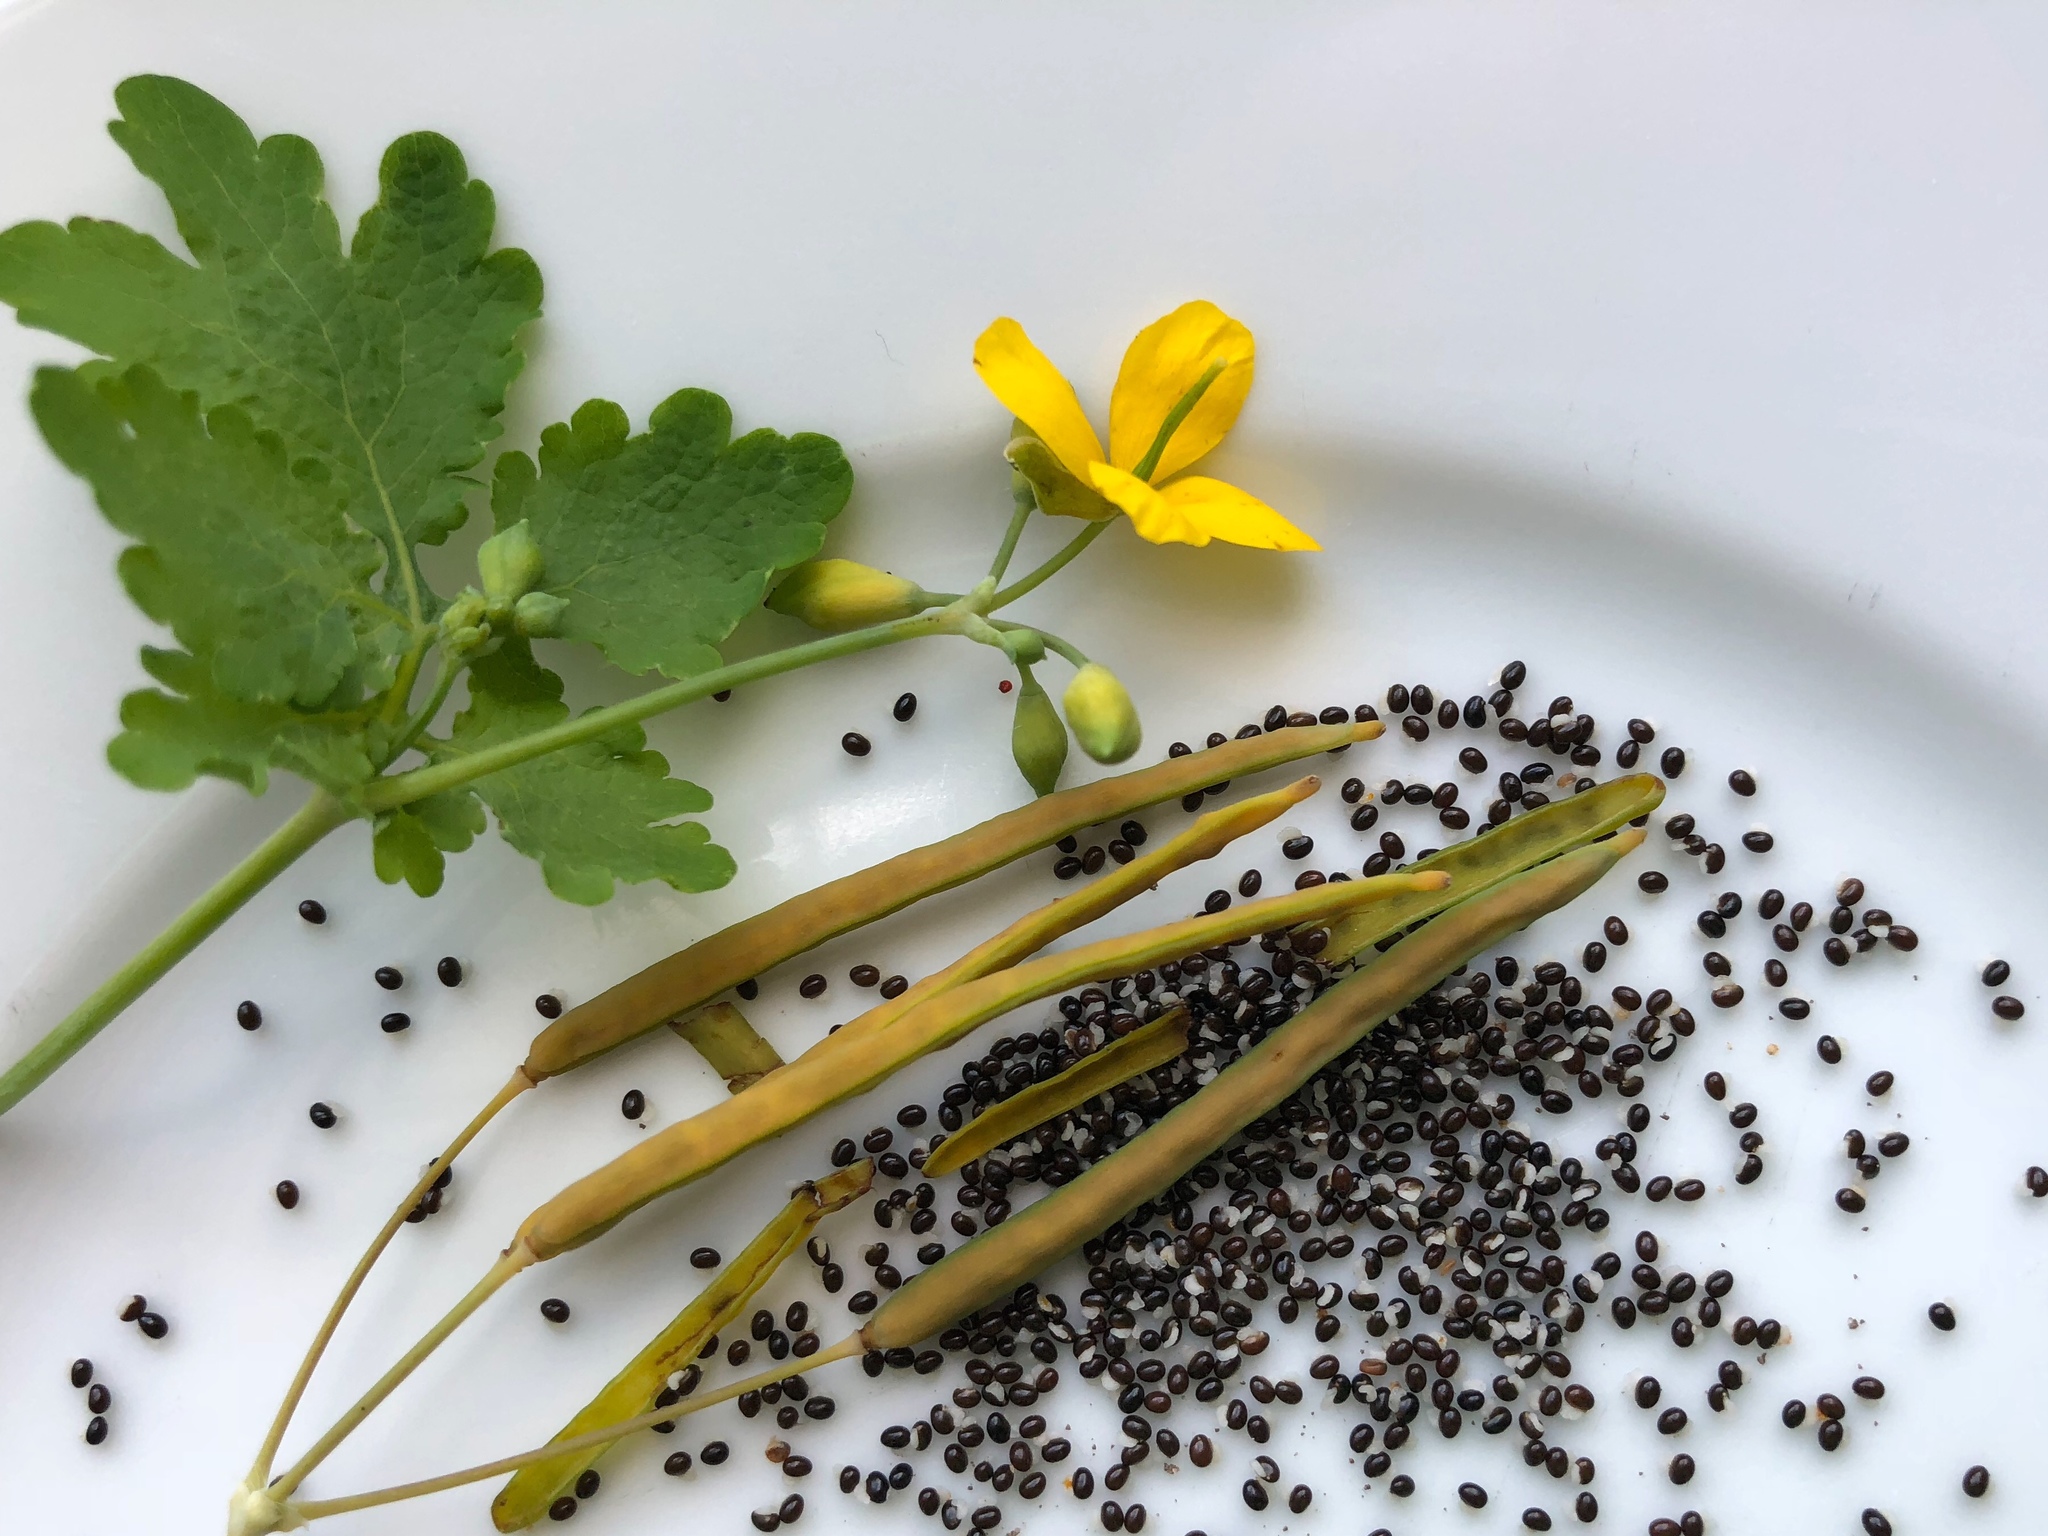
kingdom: Plantae
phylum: Tracheophyta
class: Magnoliopsida
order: Ranunculales
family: Papaveraceae
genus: Chelidonium
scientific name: Chelidonium majus
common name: Greater celandine
